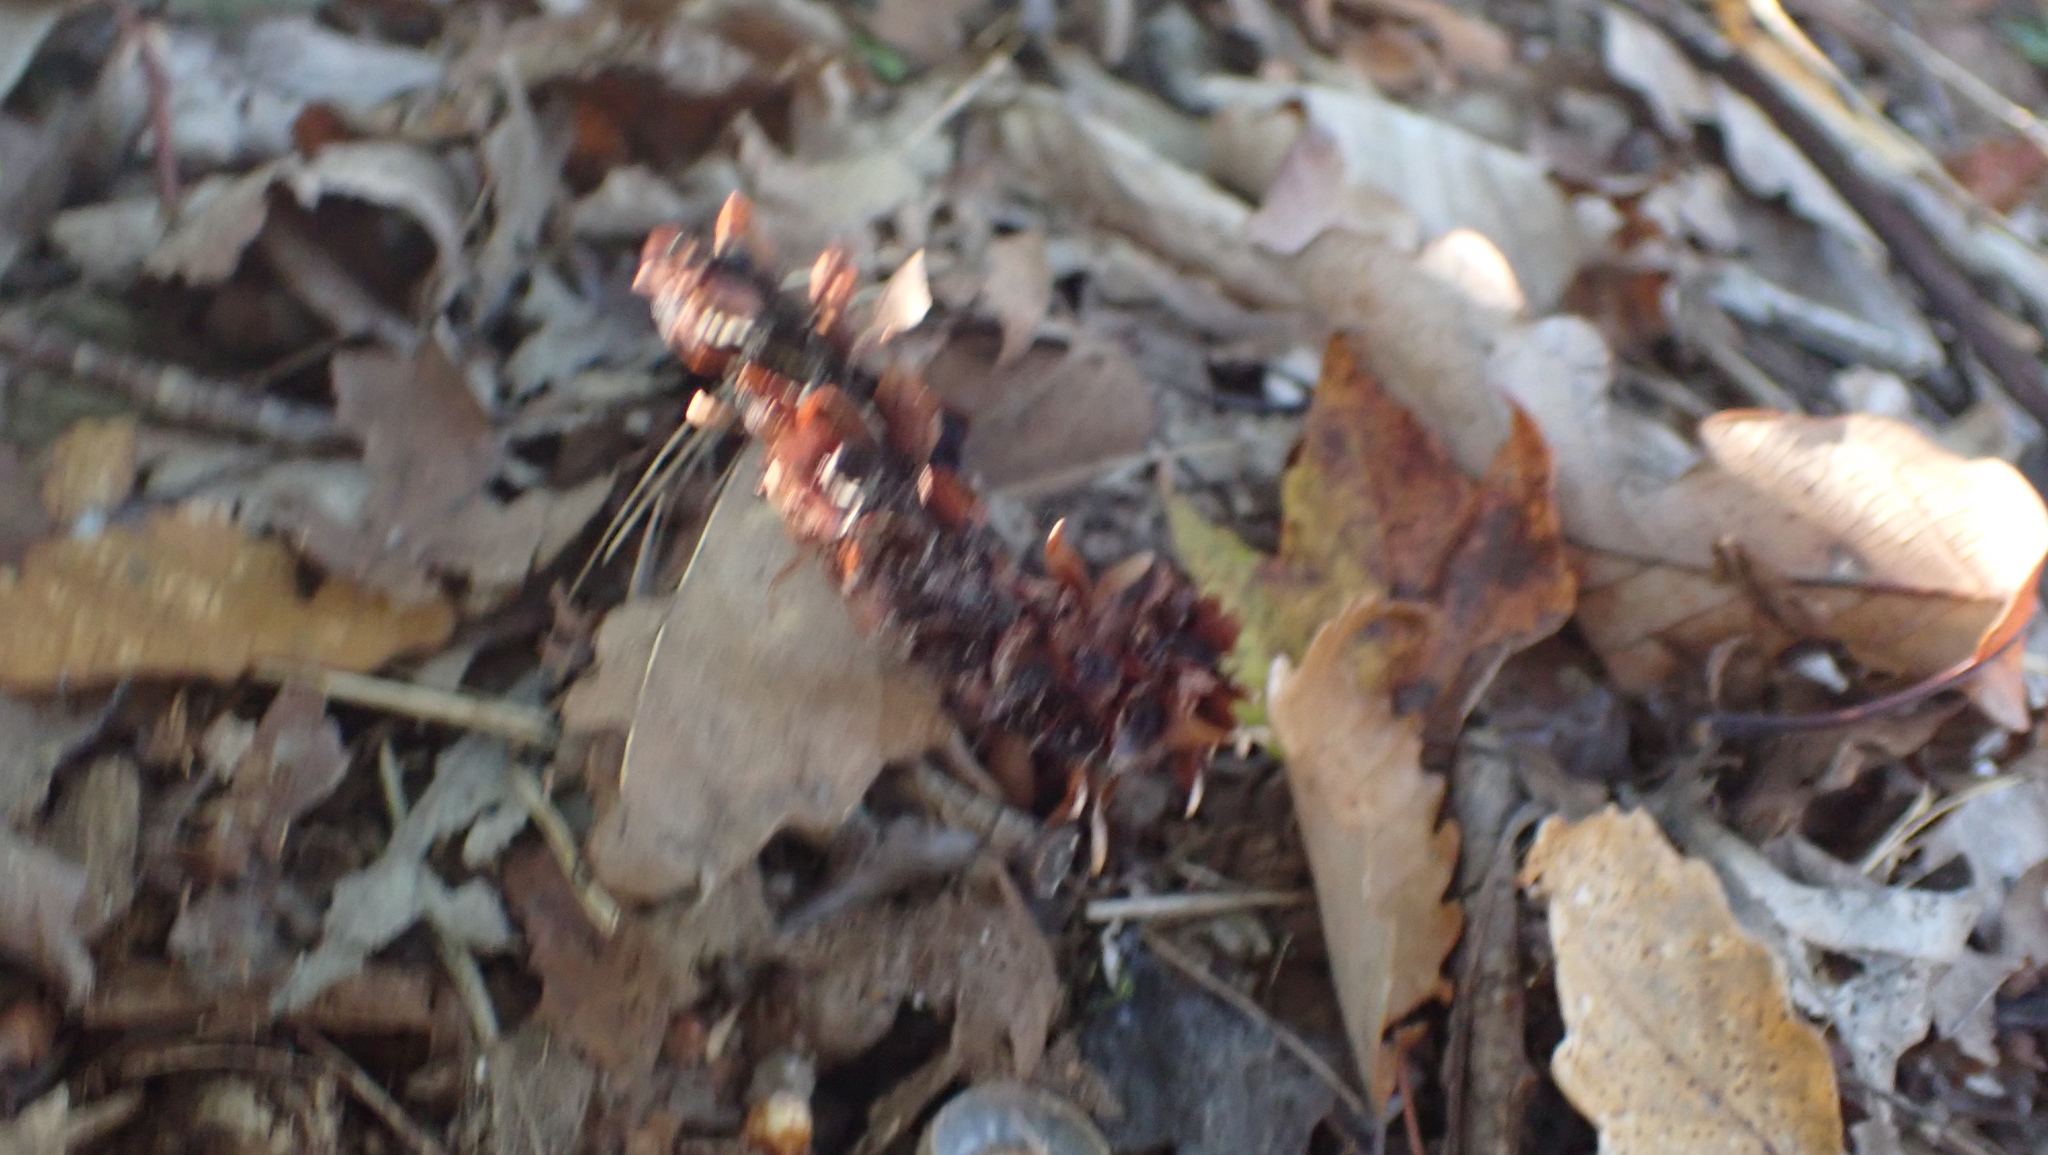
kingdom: Plantae
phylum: Tracheophyta
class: Magnoliopsida
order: Lamiales
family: Orobanchaceae
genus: Conopholis
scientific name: Conopholis americana
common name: American cancer-root
